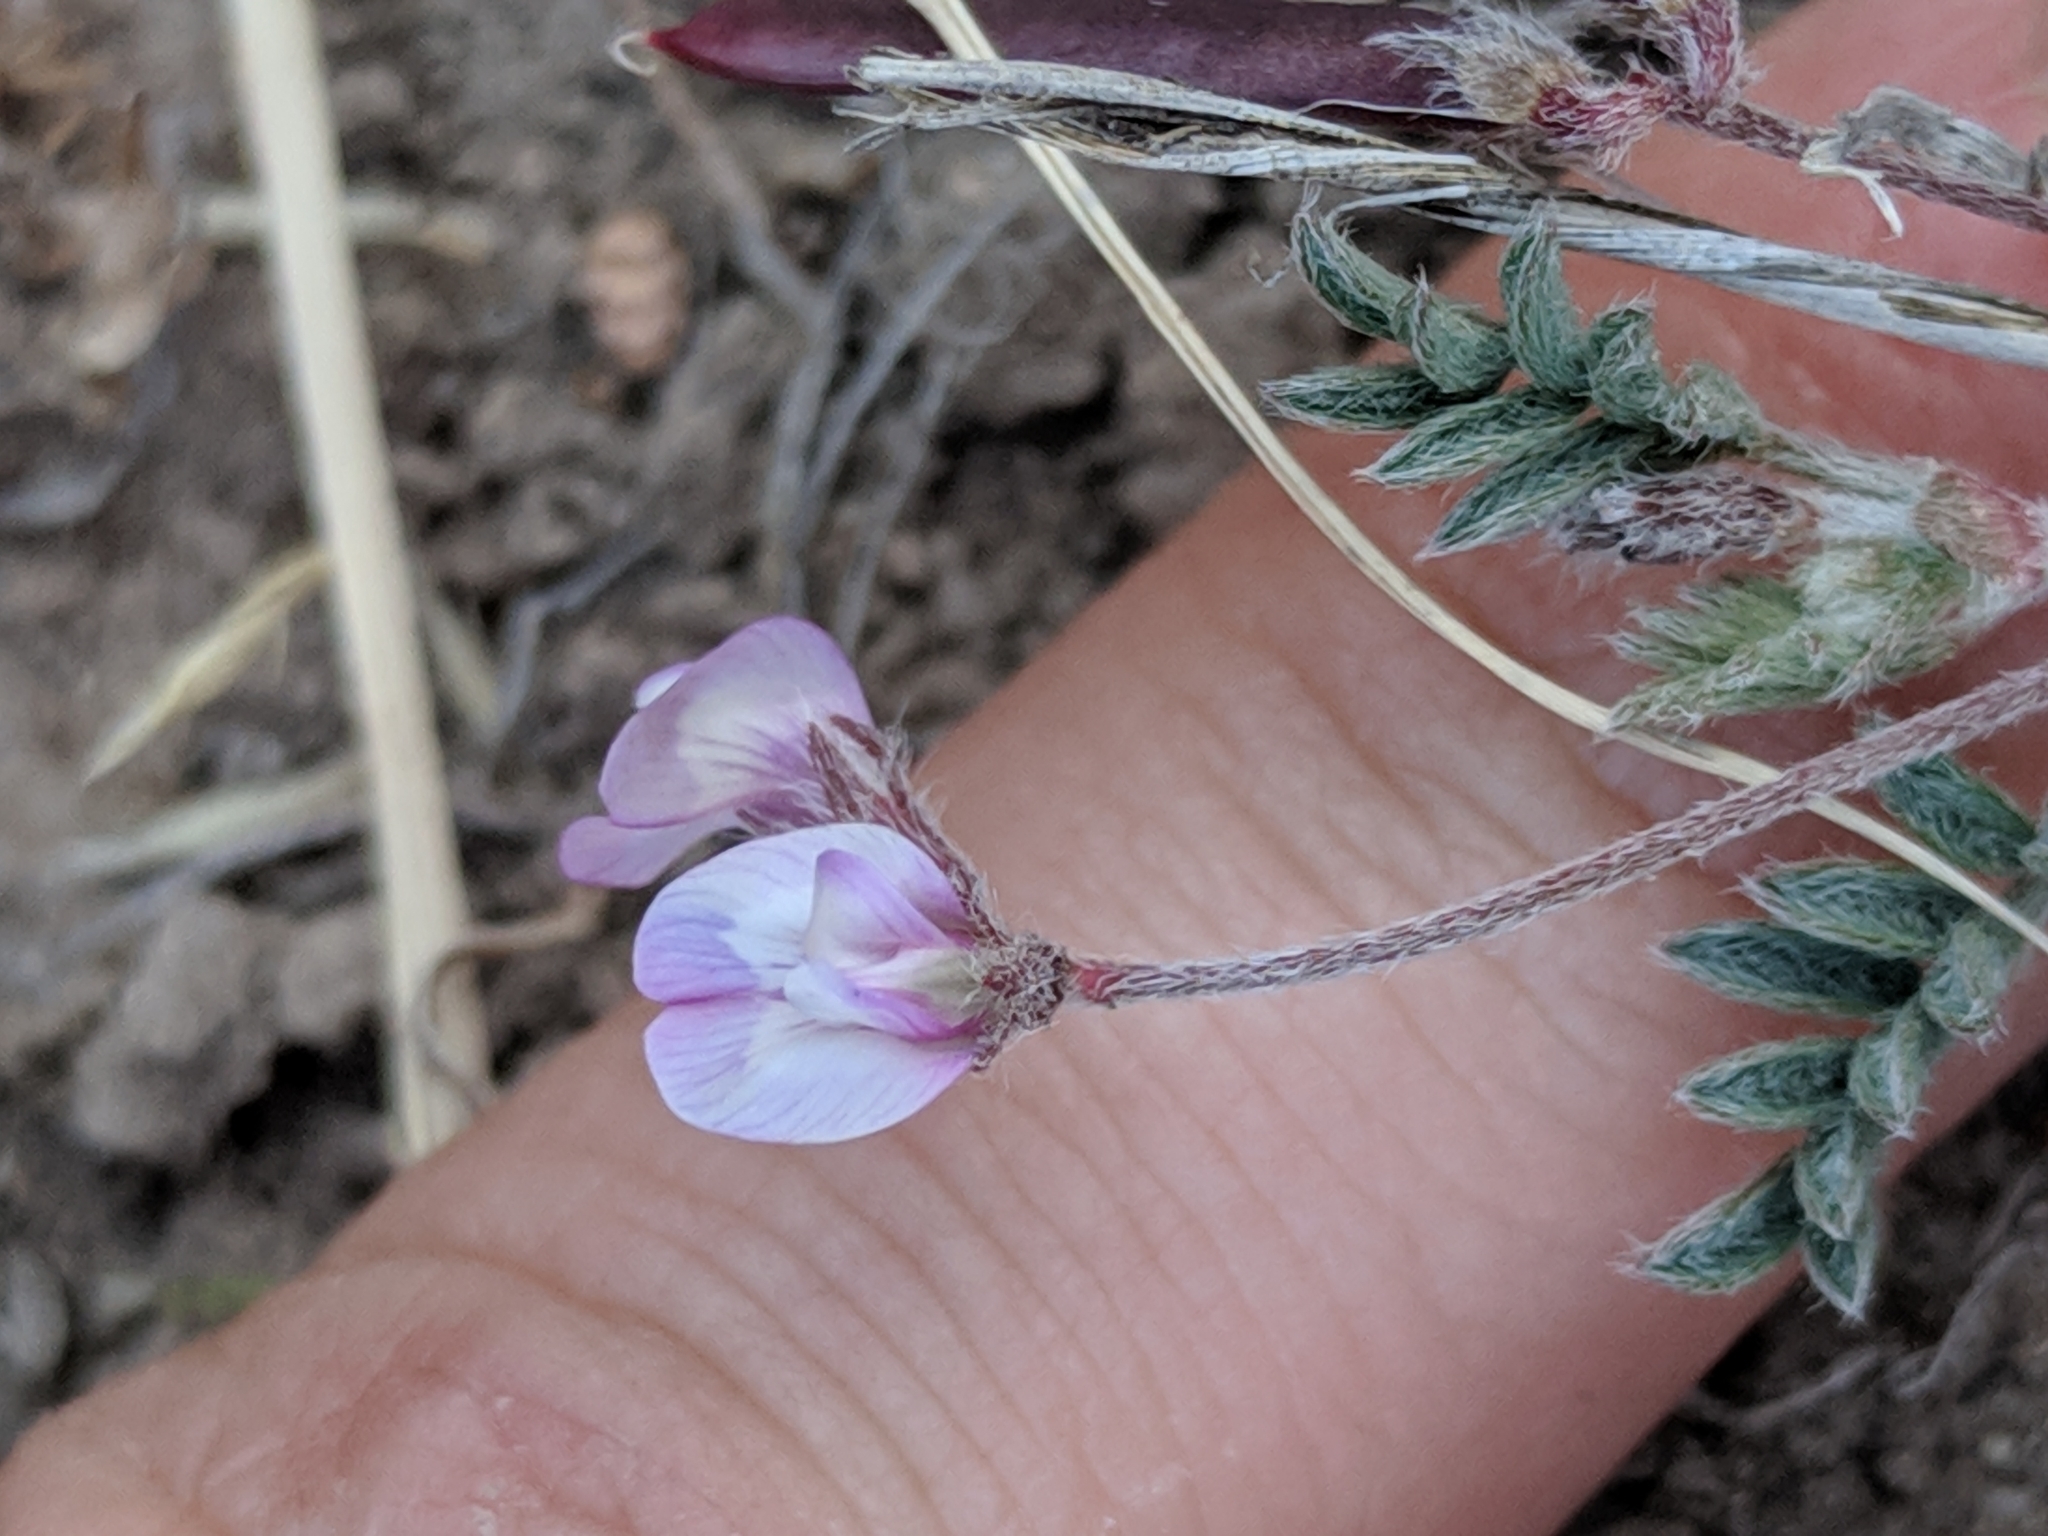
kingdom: Plantae
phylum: Tracheophyta
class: Magnoliopsida
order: Fabales
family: Fabaceae
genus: Astragalus
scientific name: Astragalus nuttallianus
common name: Smallflowered milkvetch
